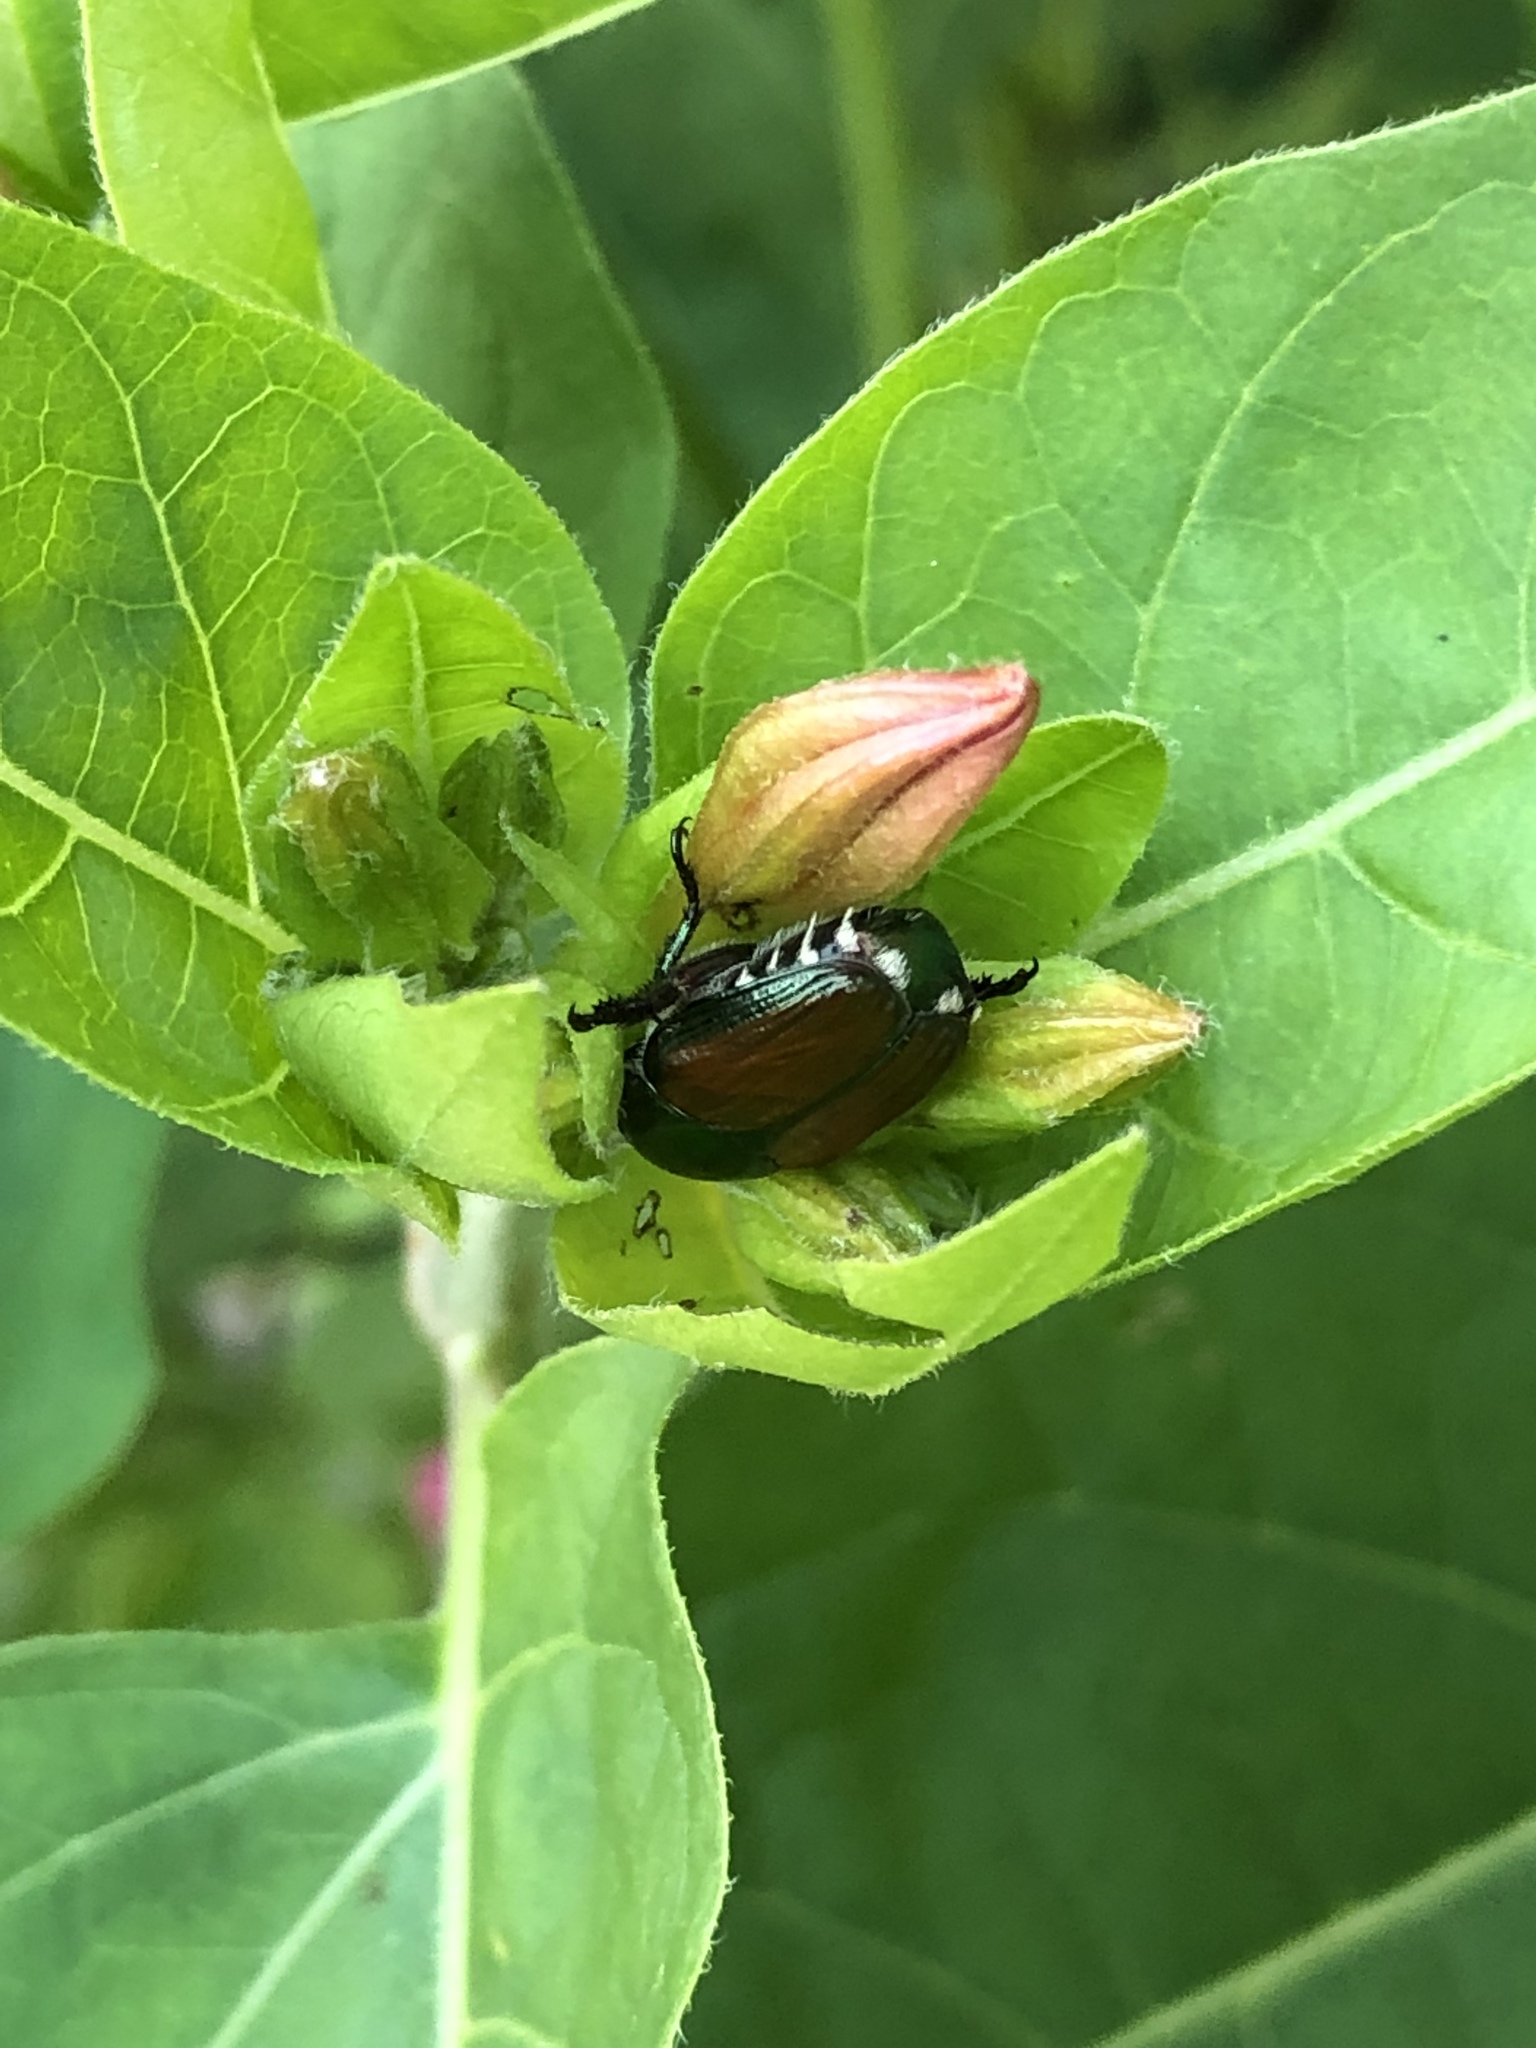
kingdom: Animalia
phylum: Arthropoda
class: Insecta
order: Coleoptera
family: Scarabaeidae
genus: Popillia
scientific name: Popillia japonica
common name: Japanese beetle
